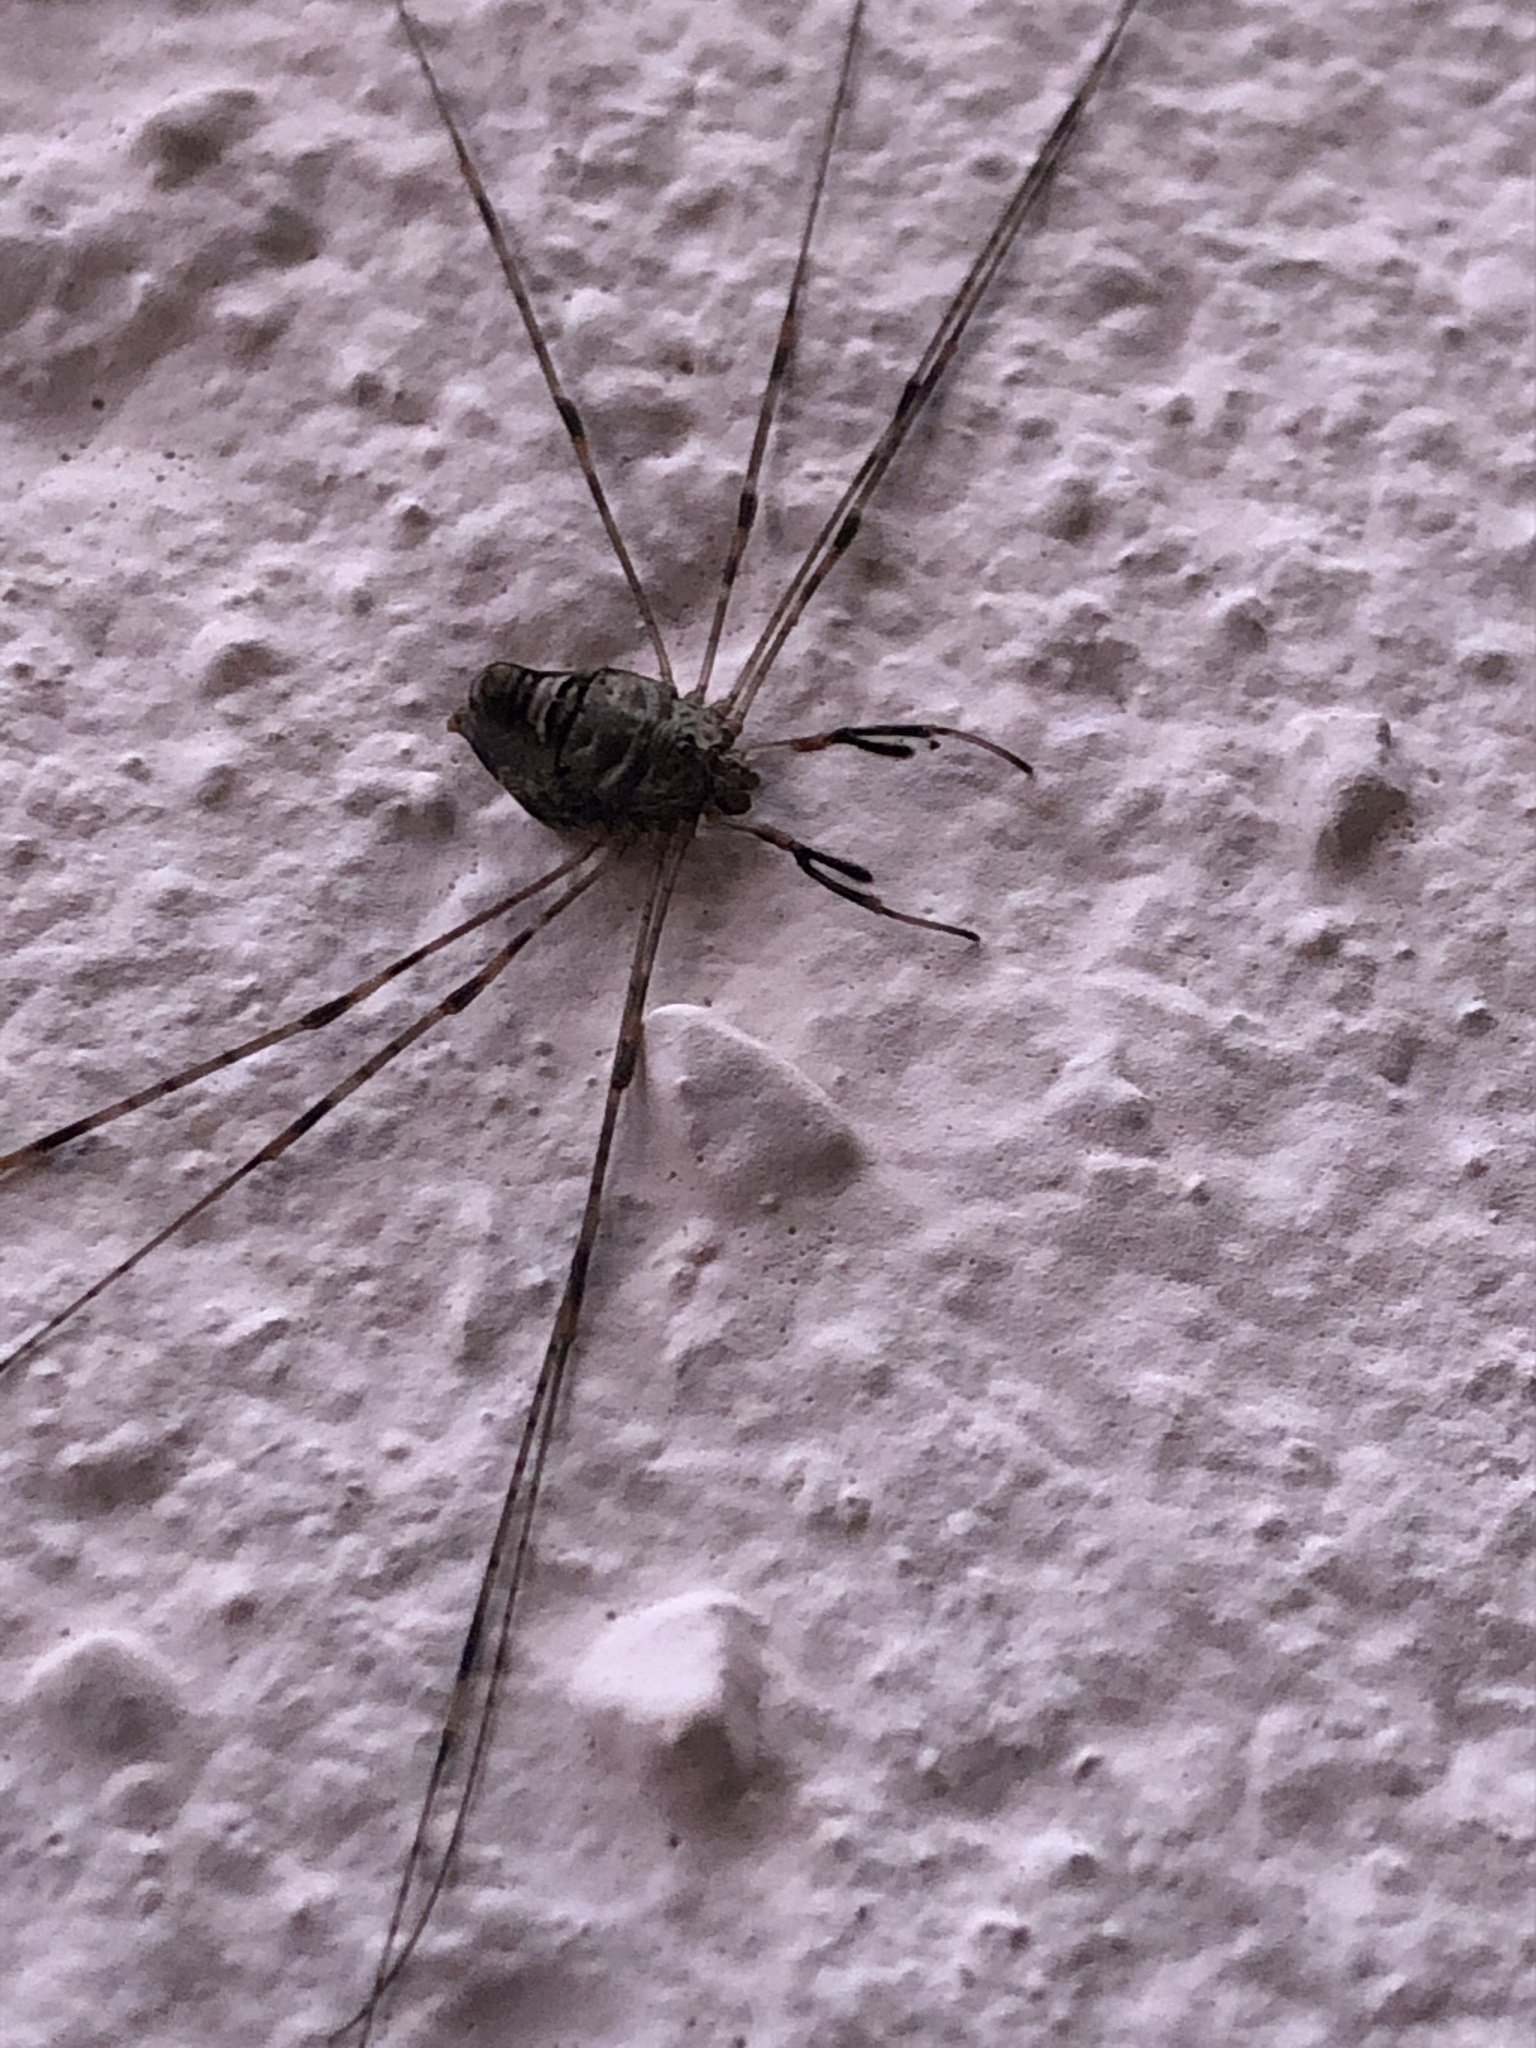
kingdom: Animalia
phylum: Arthropoda
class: Arachnida
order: Opiliones
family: Phalangiidae
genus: Dicranopalpus
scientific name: Dicranopalpus ramosus
